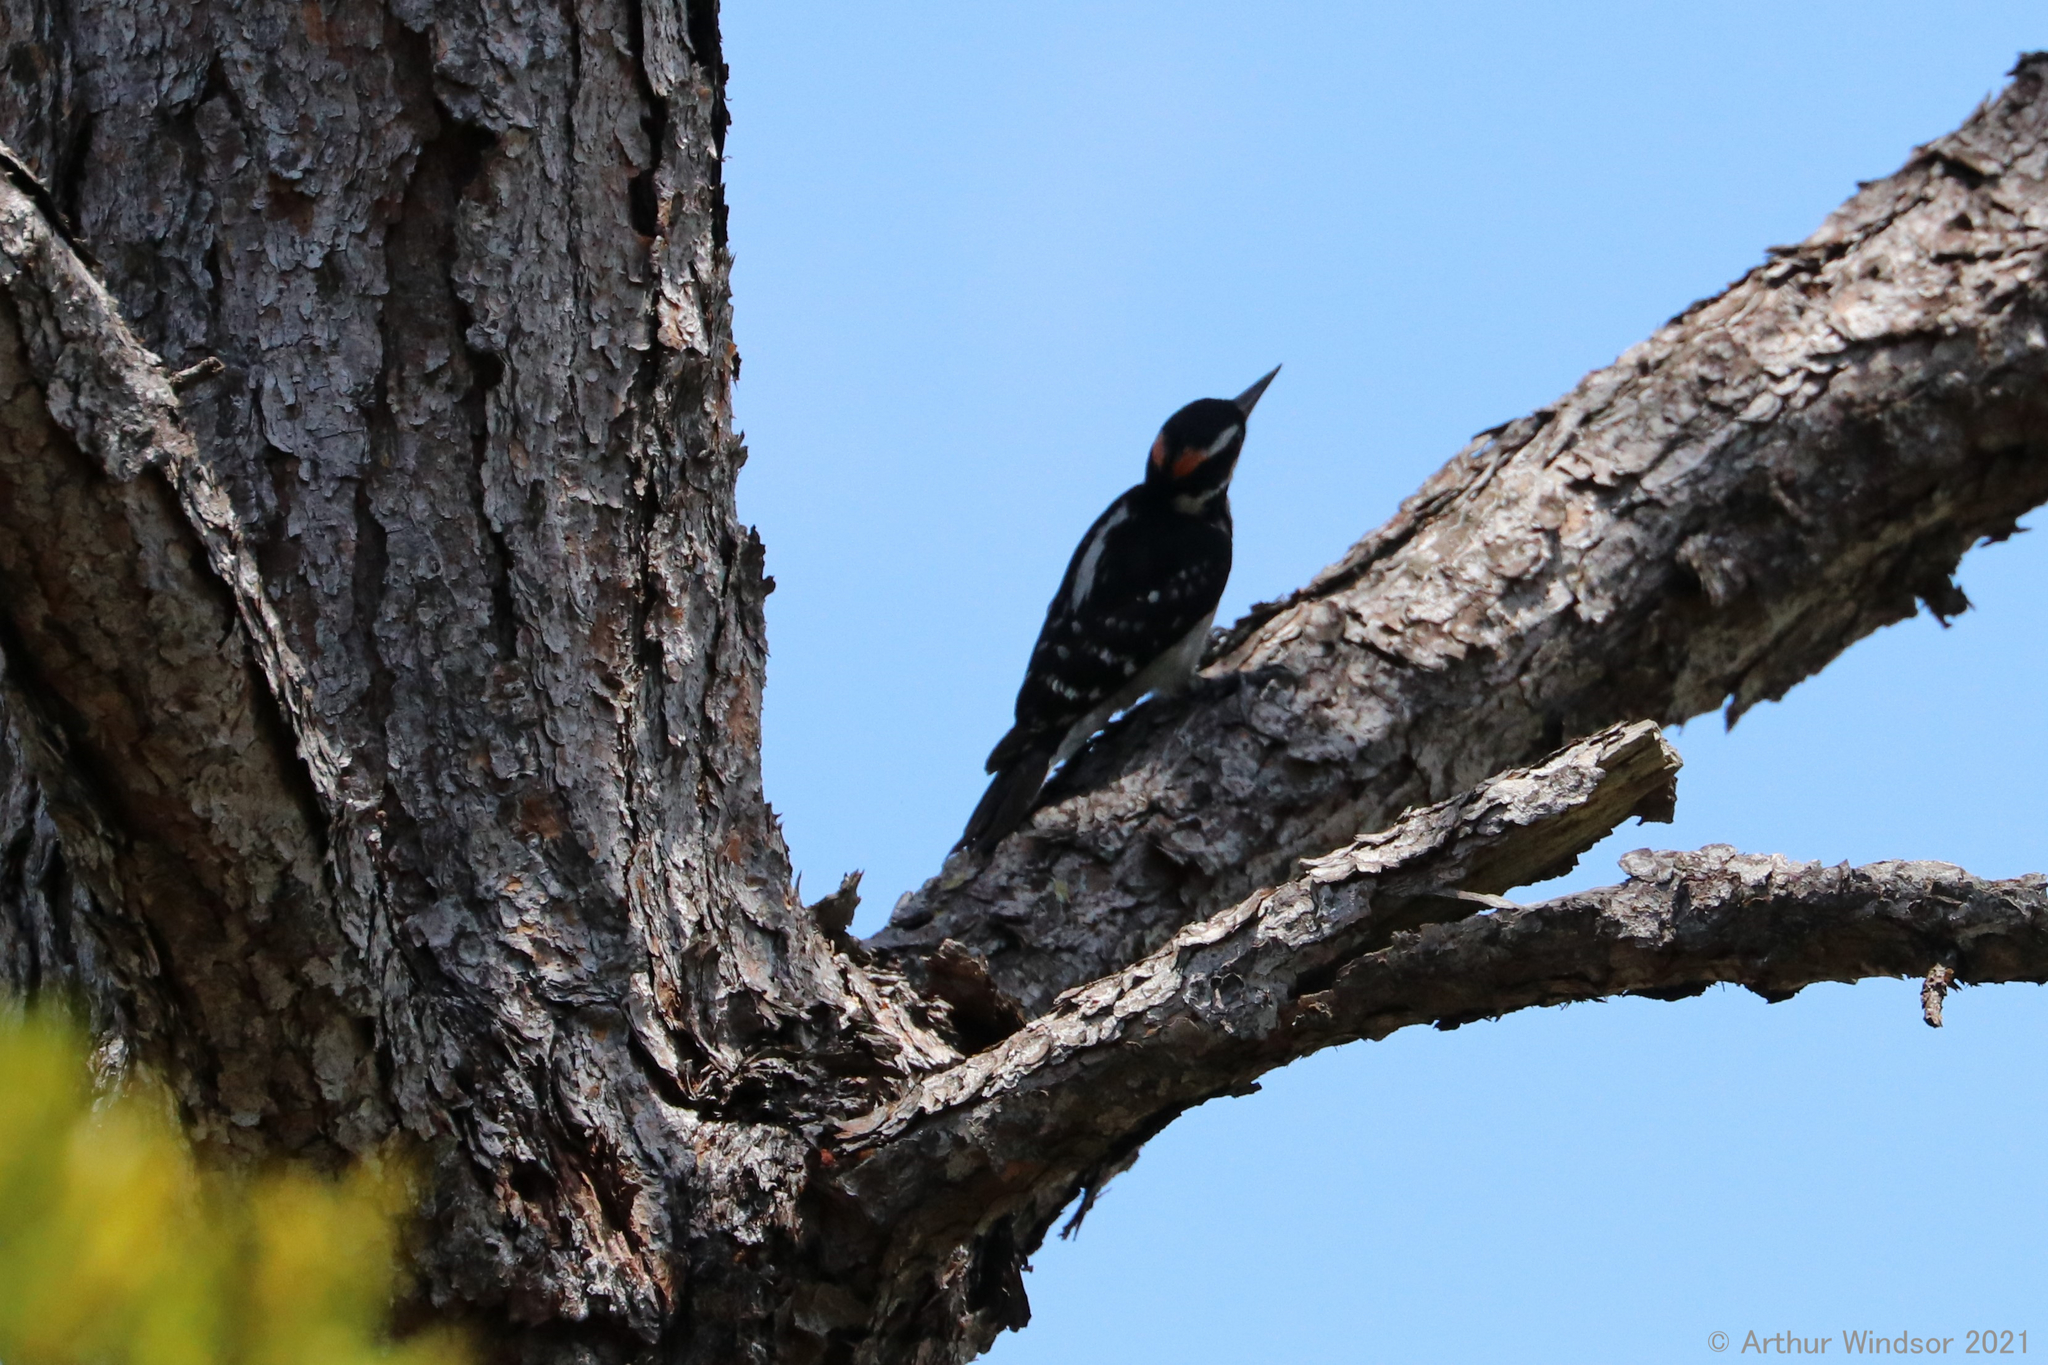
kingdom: Animalia
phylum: Chordata
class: Aves
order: Piciformes
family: Picidae
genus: Leuconotopicus
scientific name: Leuconotopicus villosus
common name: Hairy woodpecker
